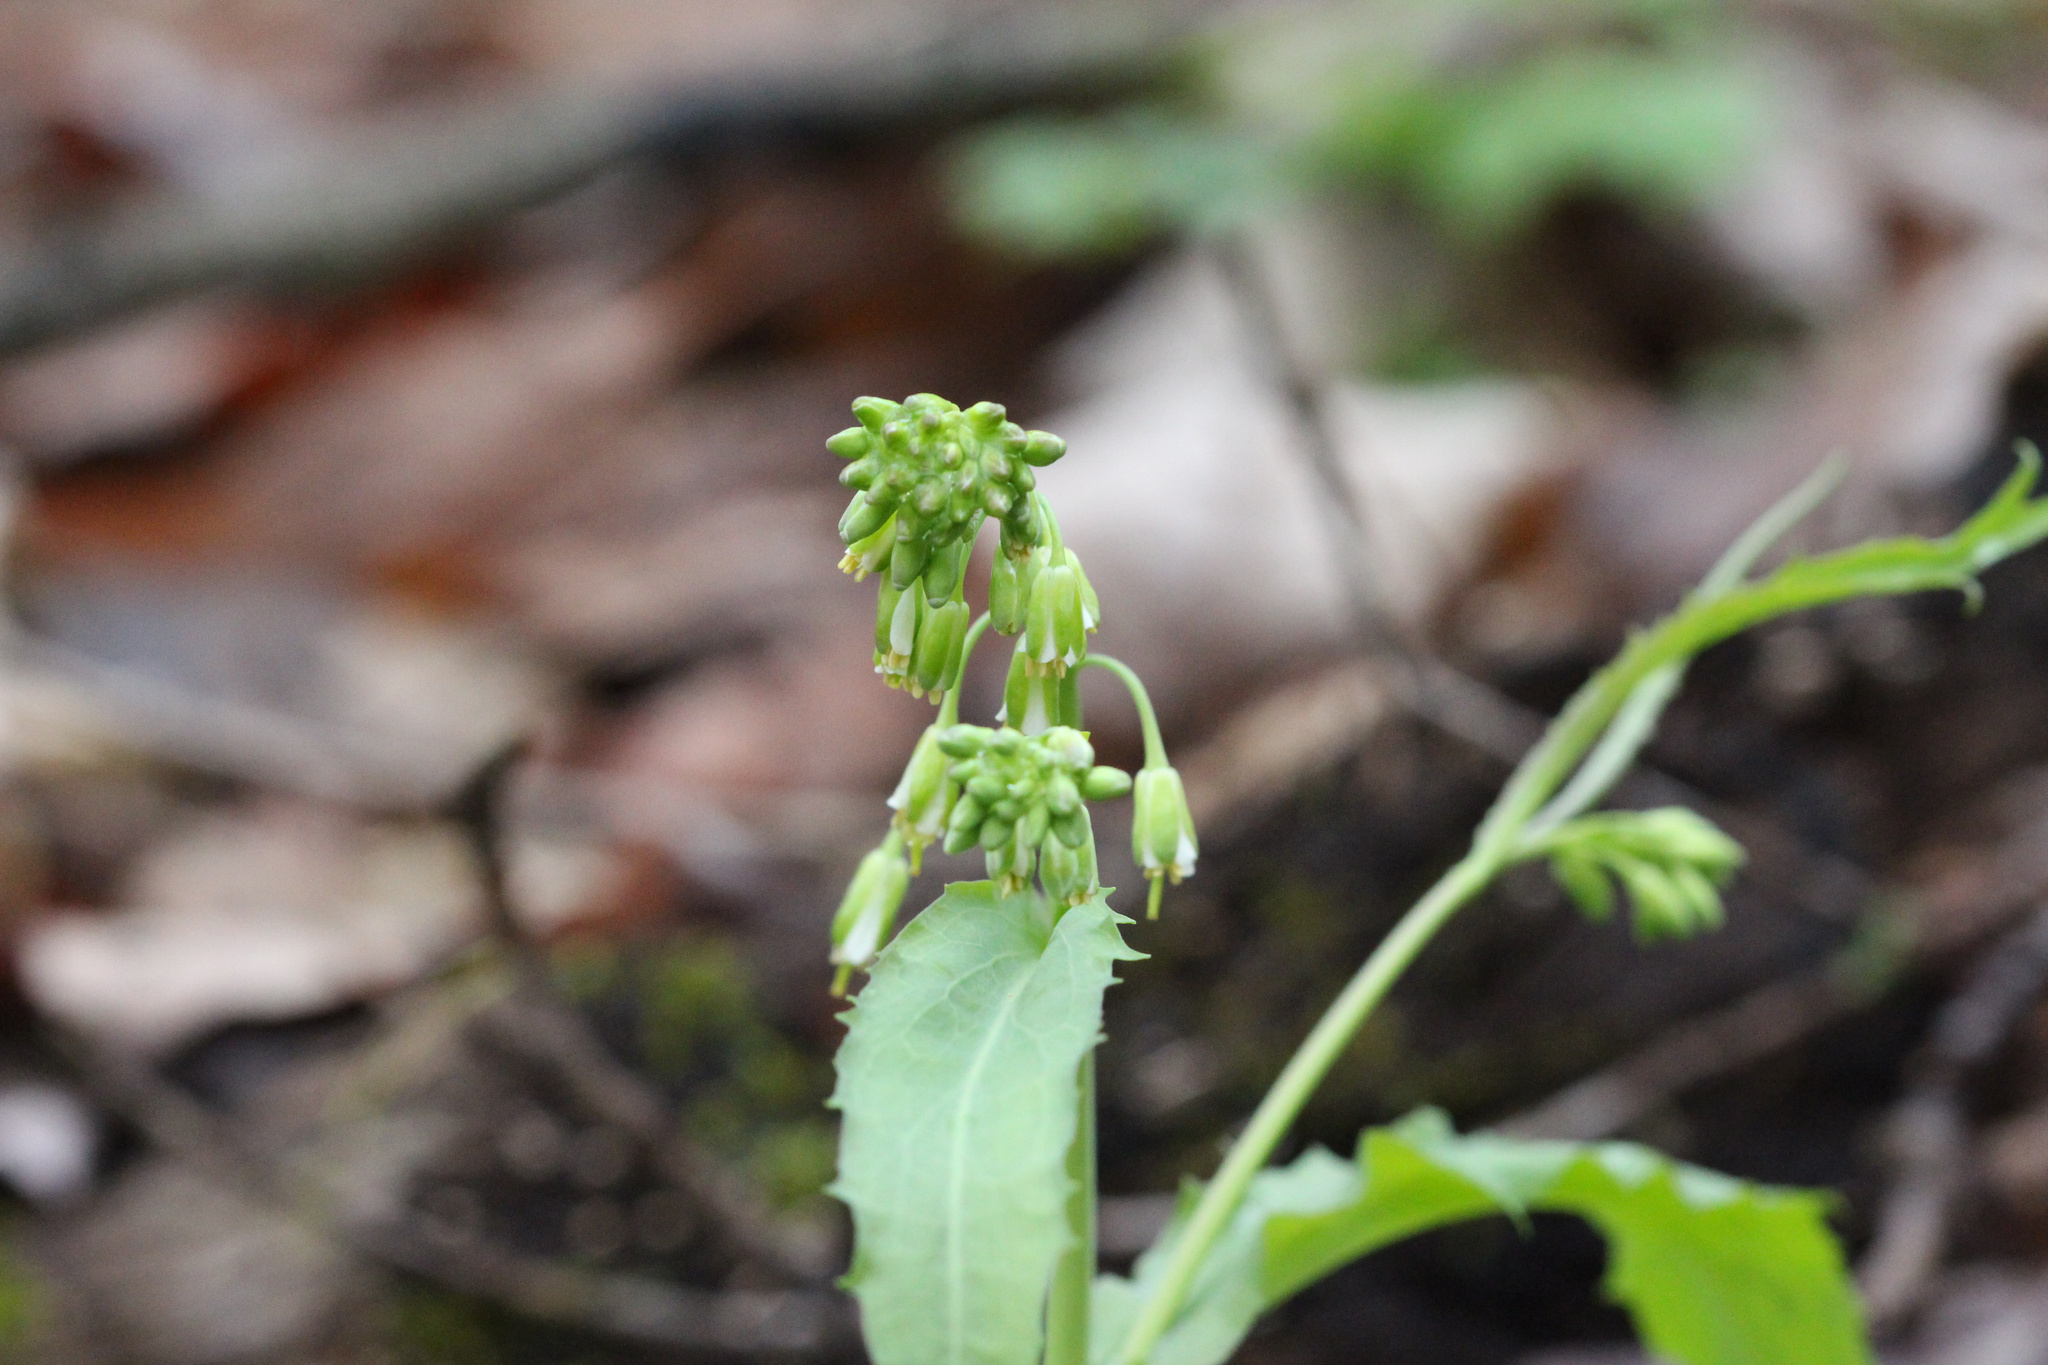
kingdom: Plantae
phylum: Tracheophyta
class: Magnoliopsida
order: Brassicales
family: Brassicaceae
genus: Borodinia
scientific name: Borodinia laevigata
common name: Smooth rockcress
